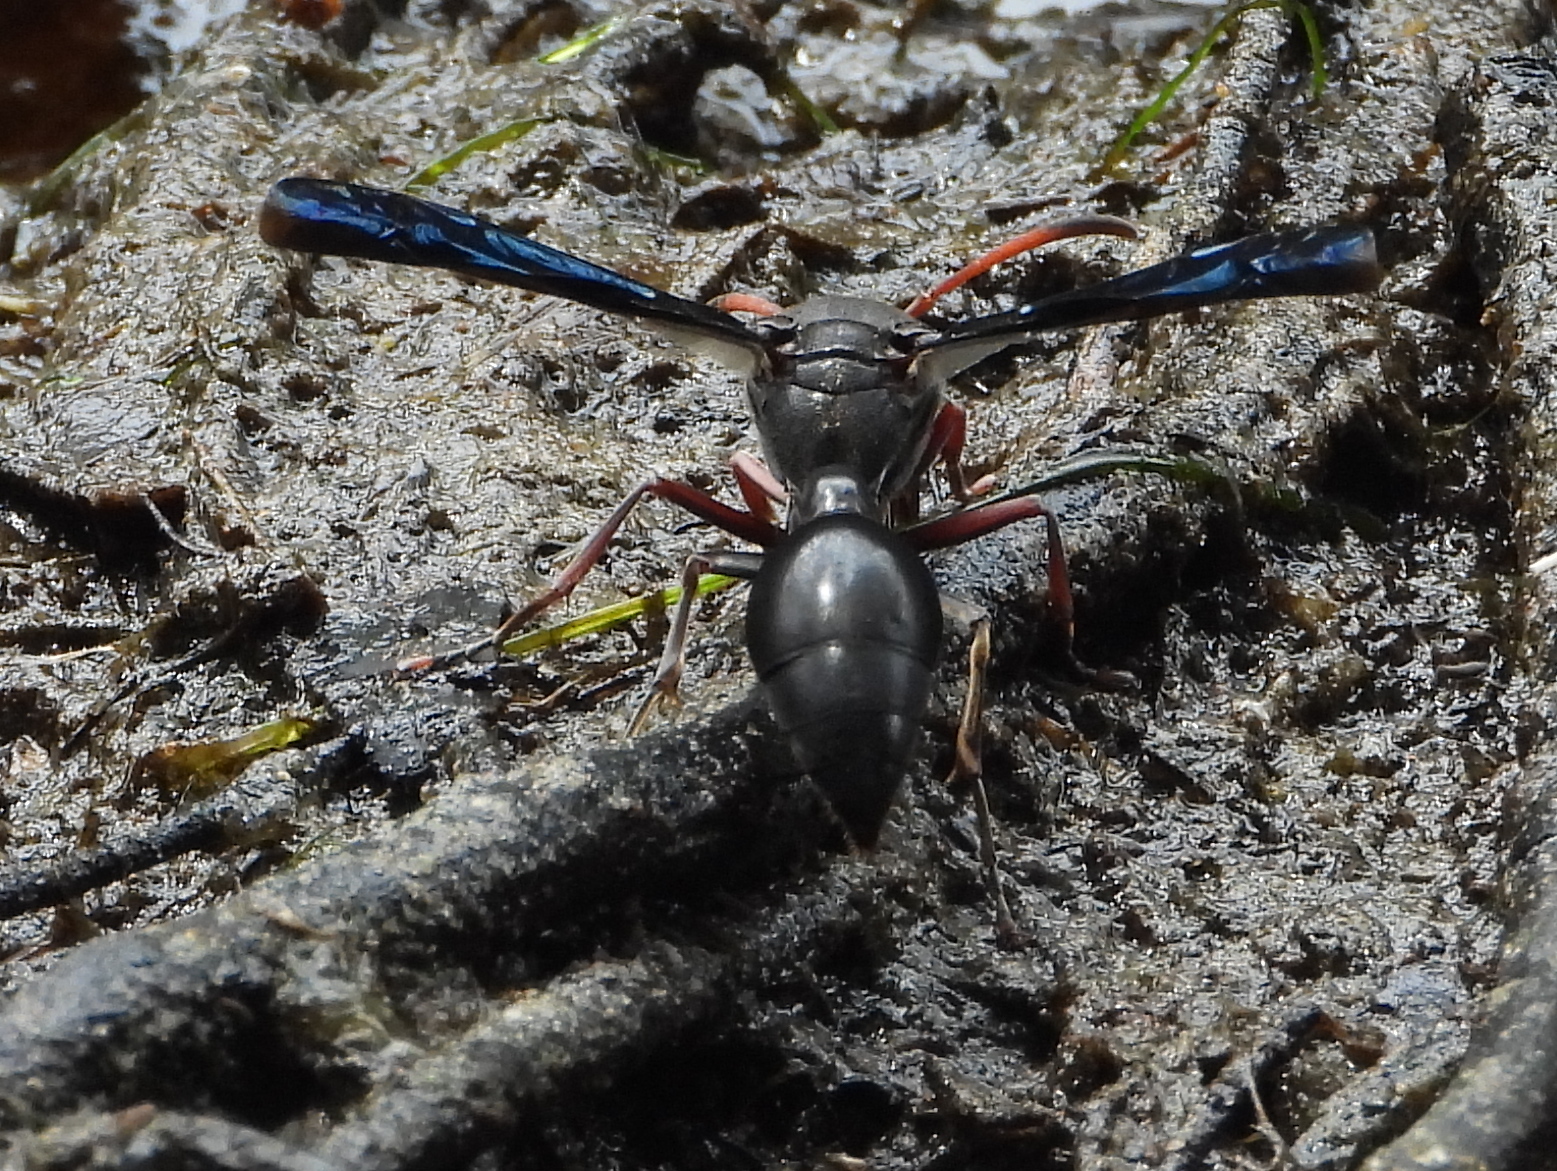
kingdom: Animalia
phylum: Arthropoda
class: Insecta
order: Hymenoptera
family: Eumenidae
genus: Delta
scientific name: Delta emarginatum
